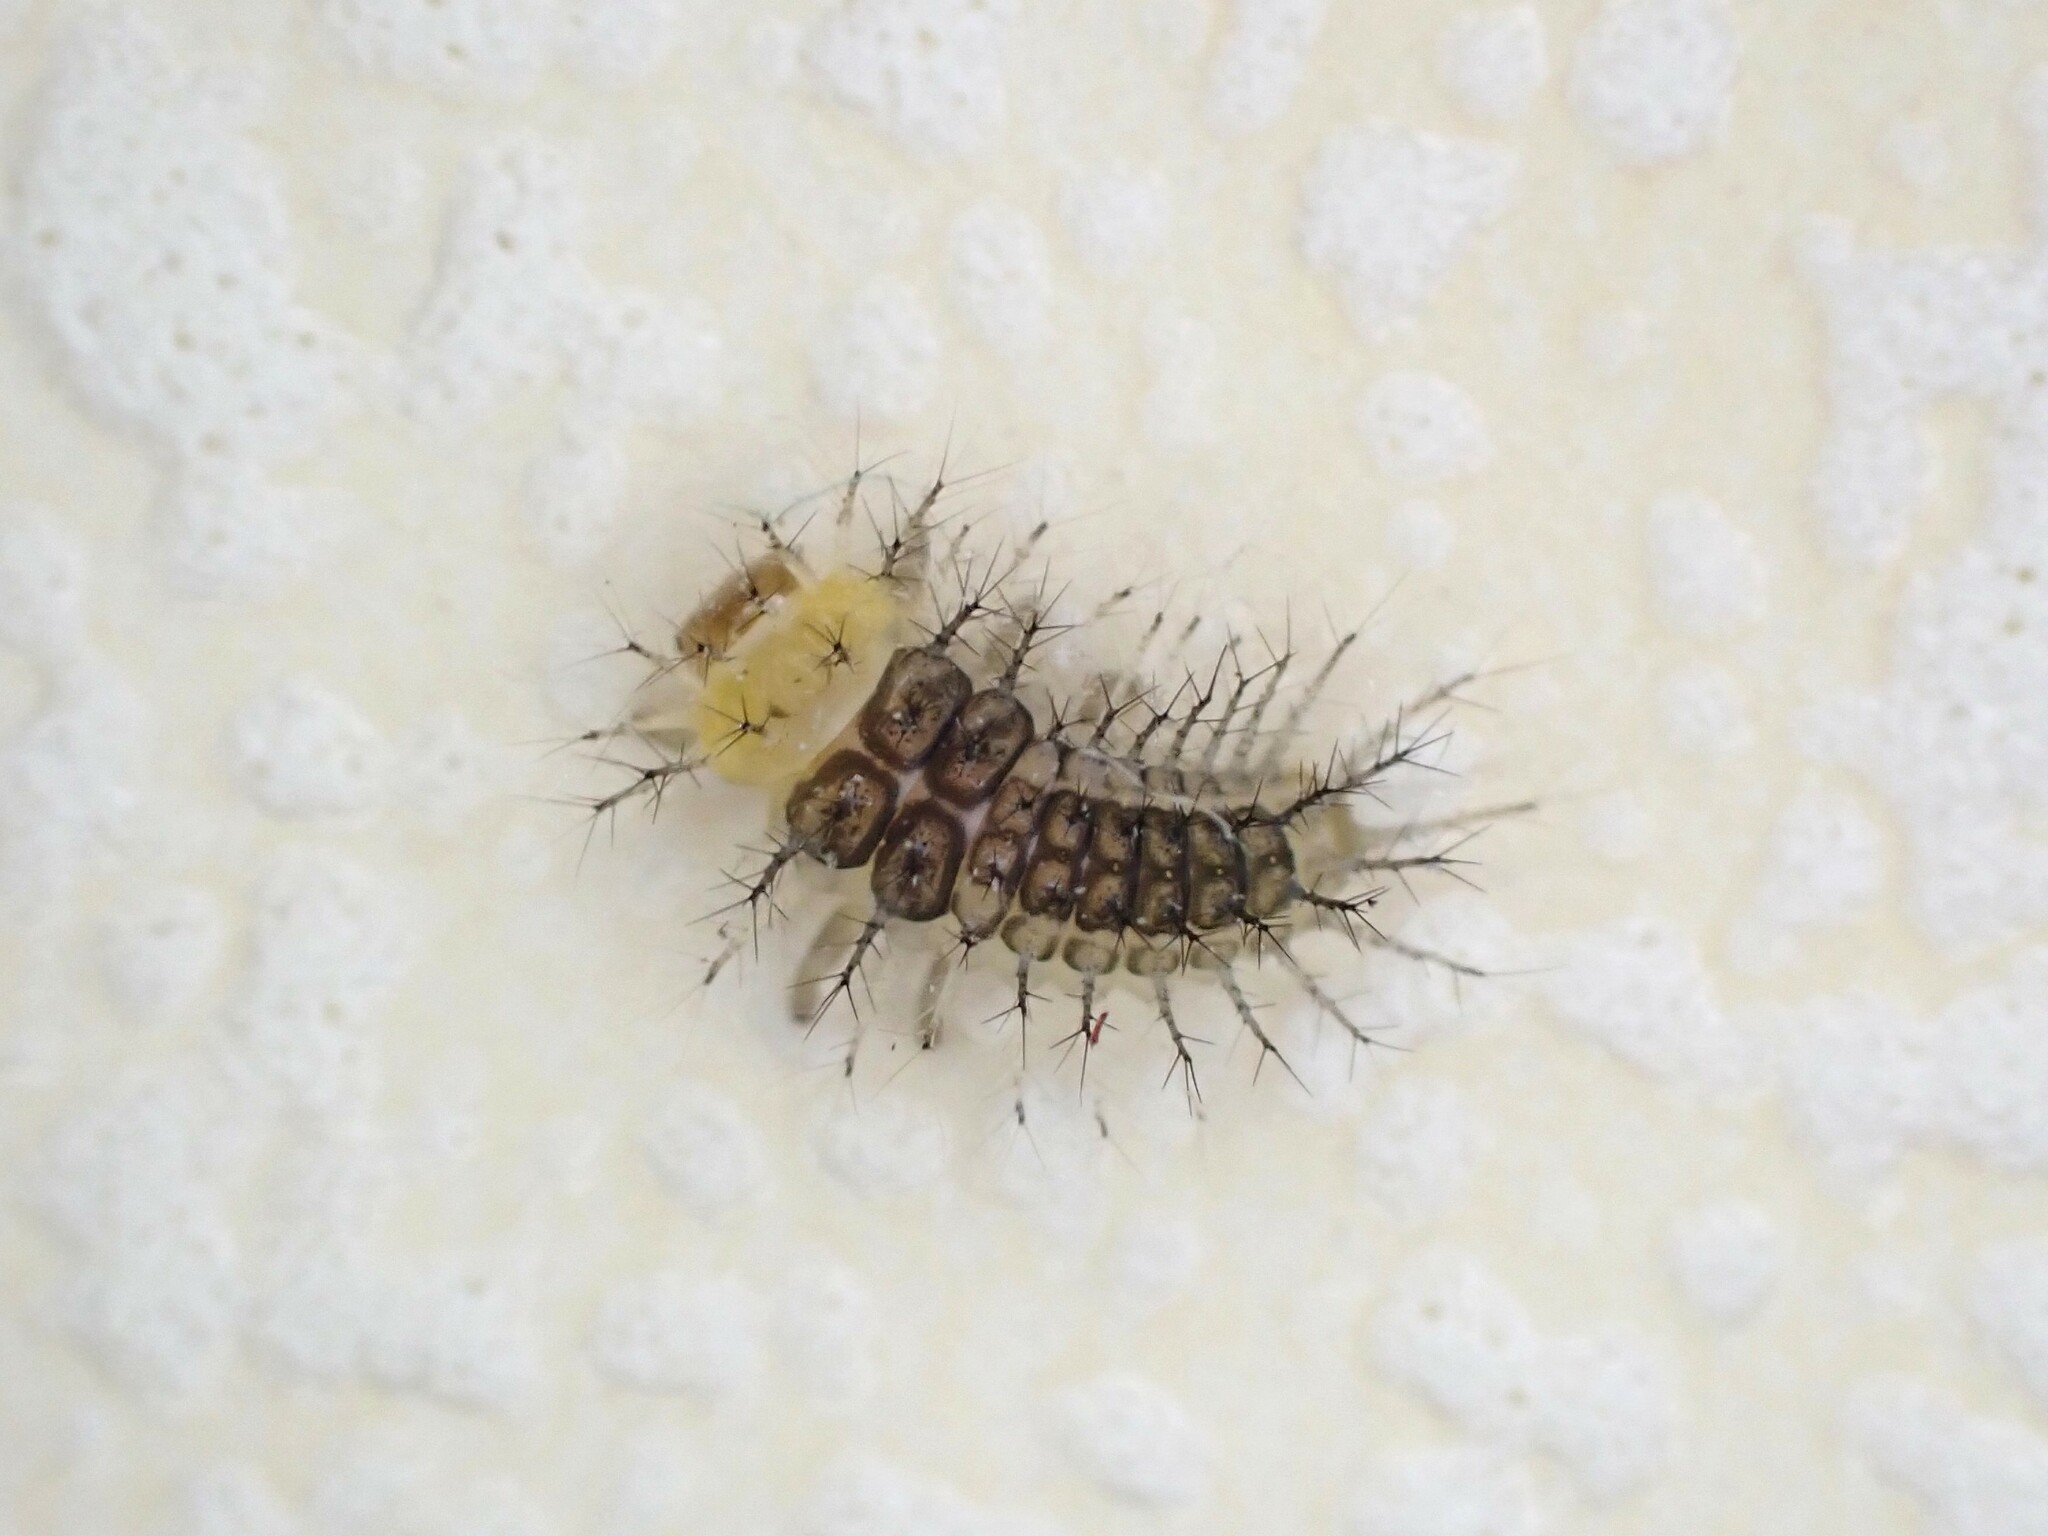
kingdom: Animalia
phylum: Arthropoda
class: Insecta
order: Coleoptera
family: Coccinellidae
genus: Halmus
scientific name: Halmus chalybeus
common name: Steel blue ladybird beetle
